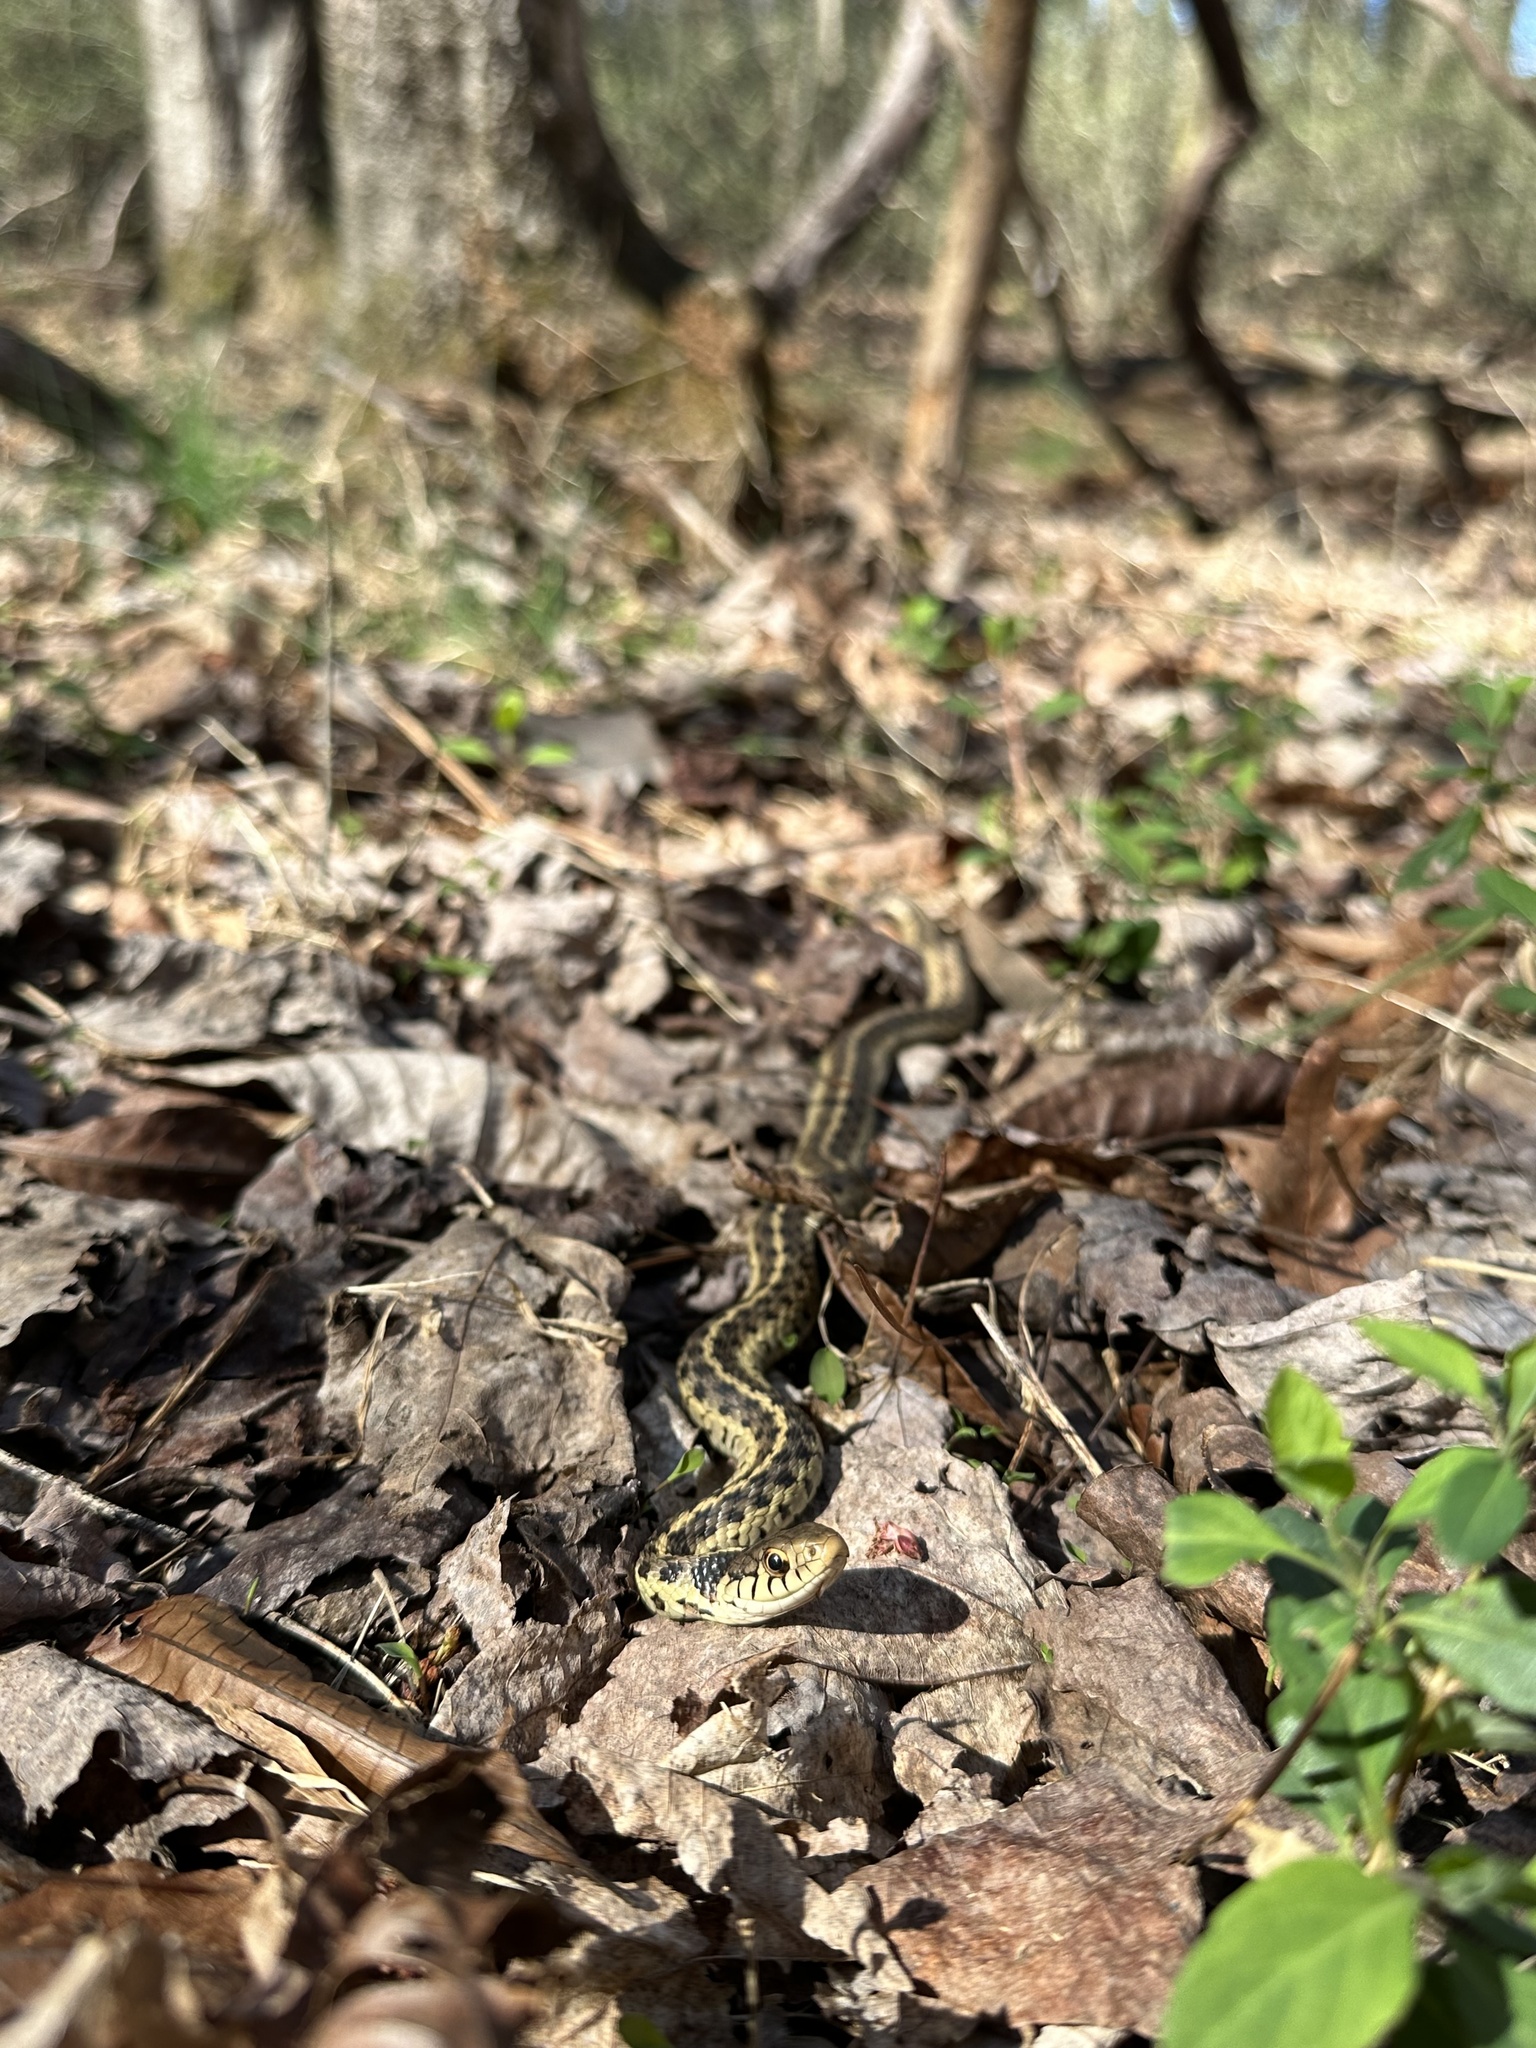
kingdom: Animalia
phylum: Chordata
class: Squamata
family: Colubridae
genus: Thamnophis
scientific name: Thamnophis sirtalis
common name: Common garter snake
